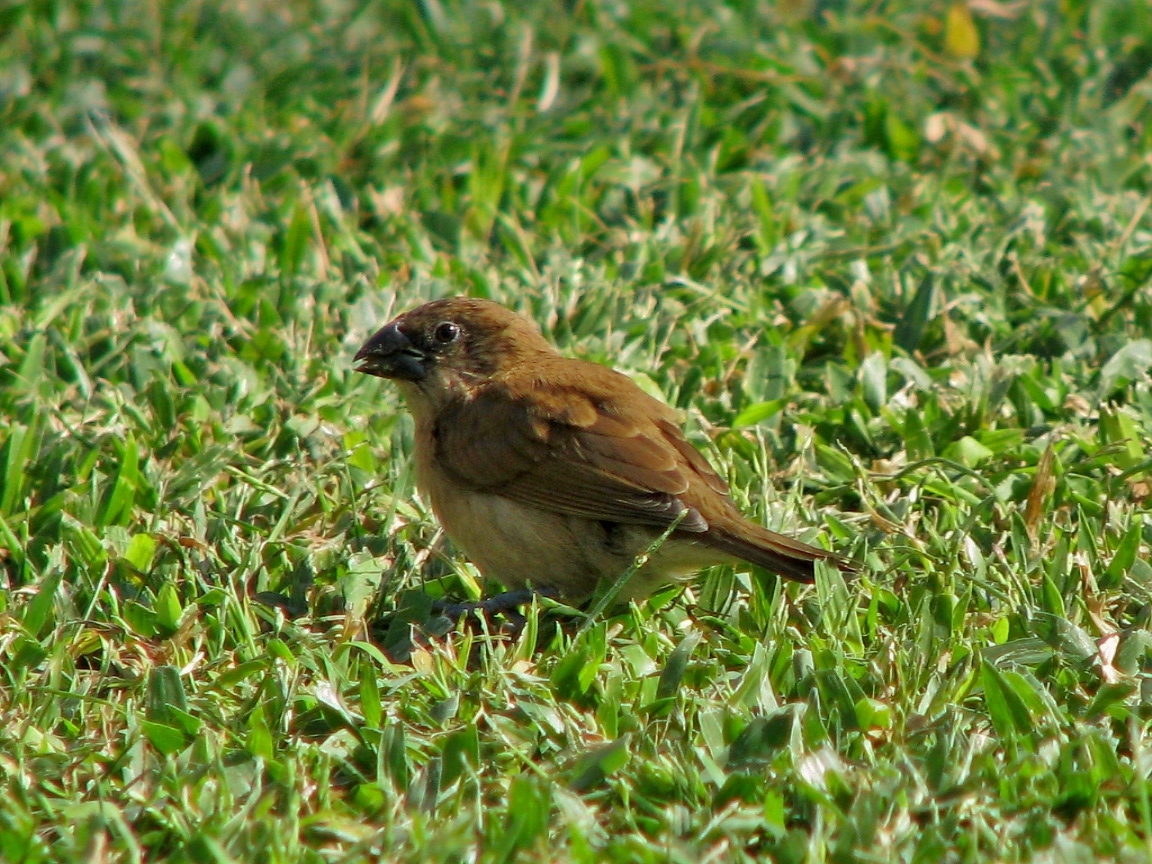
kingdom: Animalia
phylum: Chordata
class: Aves
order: Passeriformes
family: Estrildidae
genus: Lonchura
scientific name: Lonchura punctulata
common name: Scaly-breasted munia
